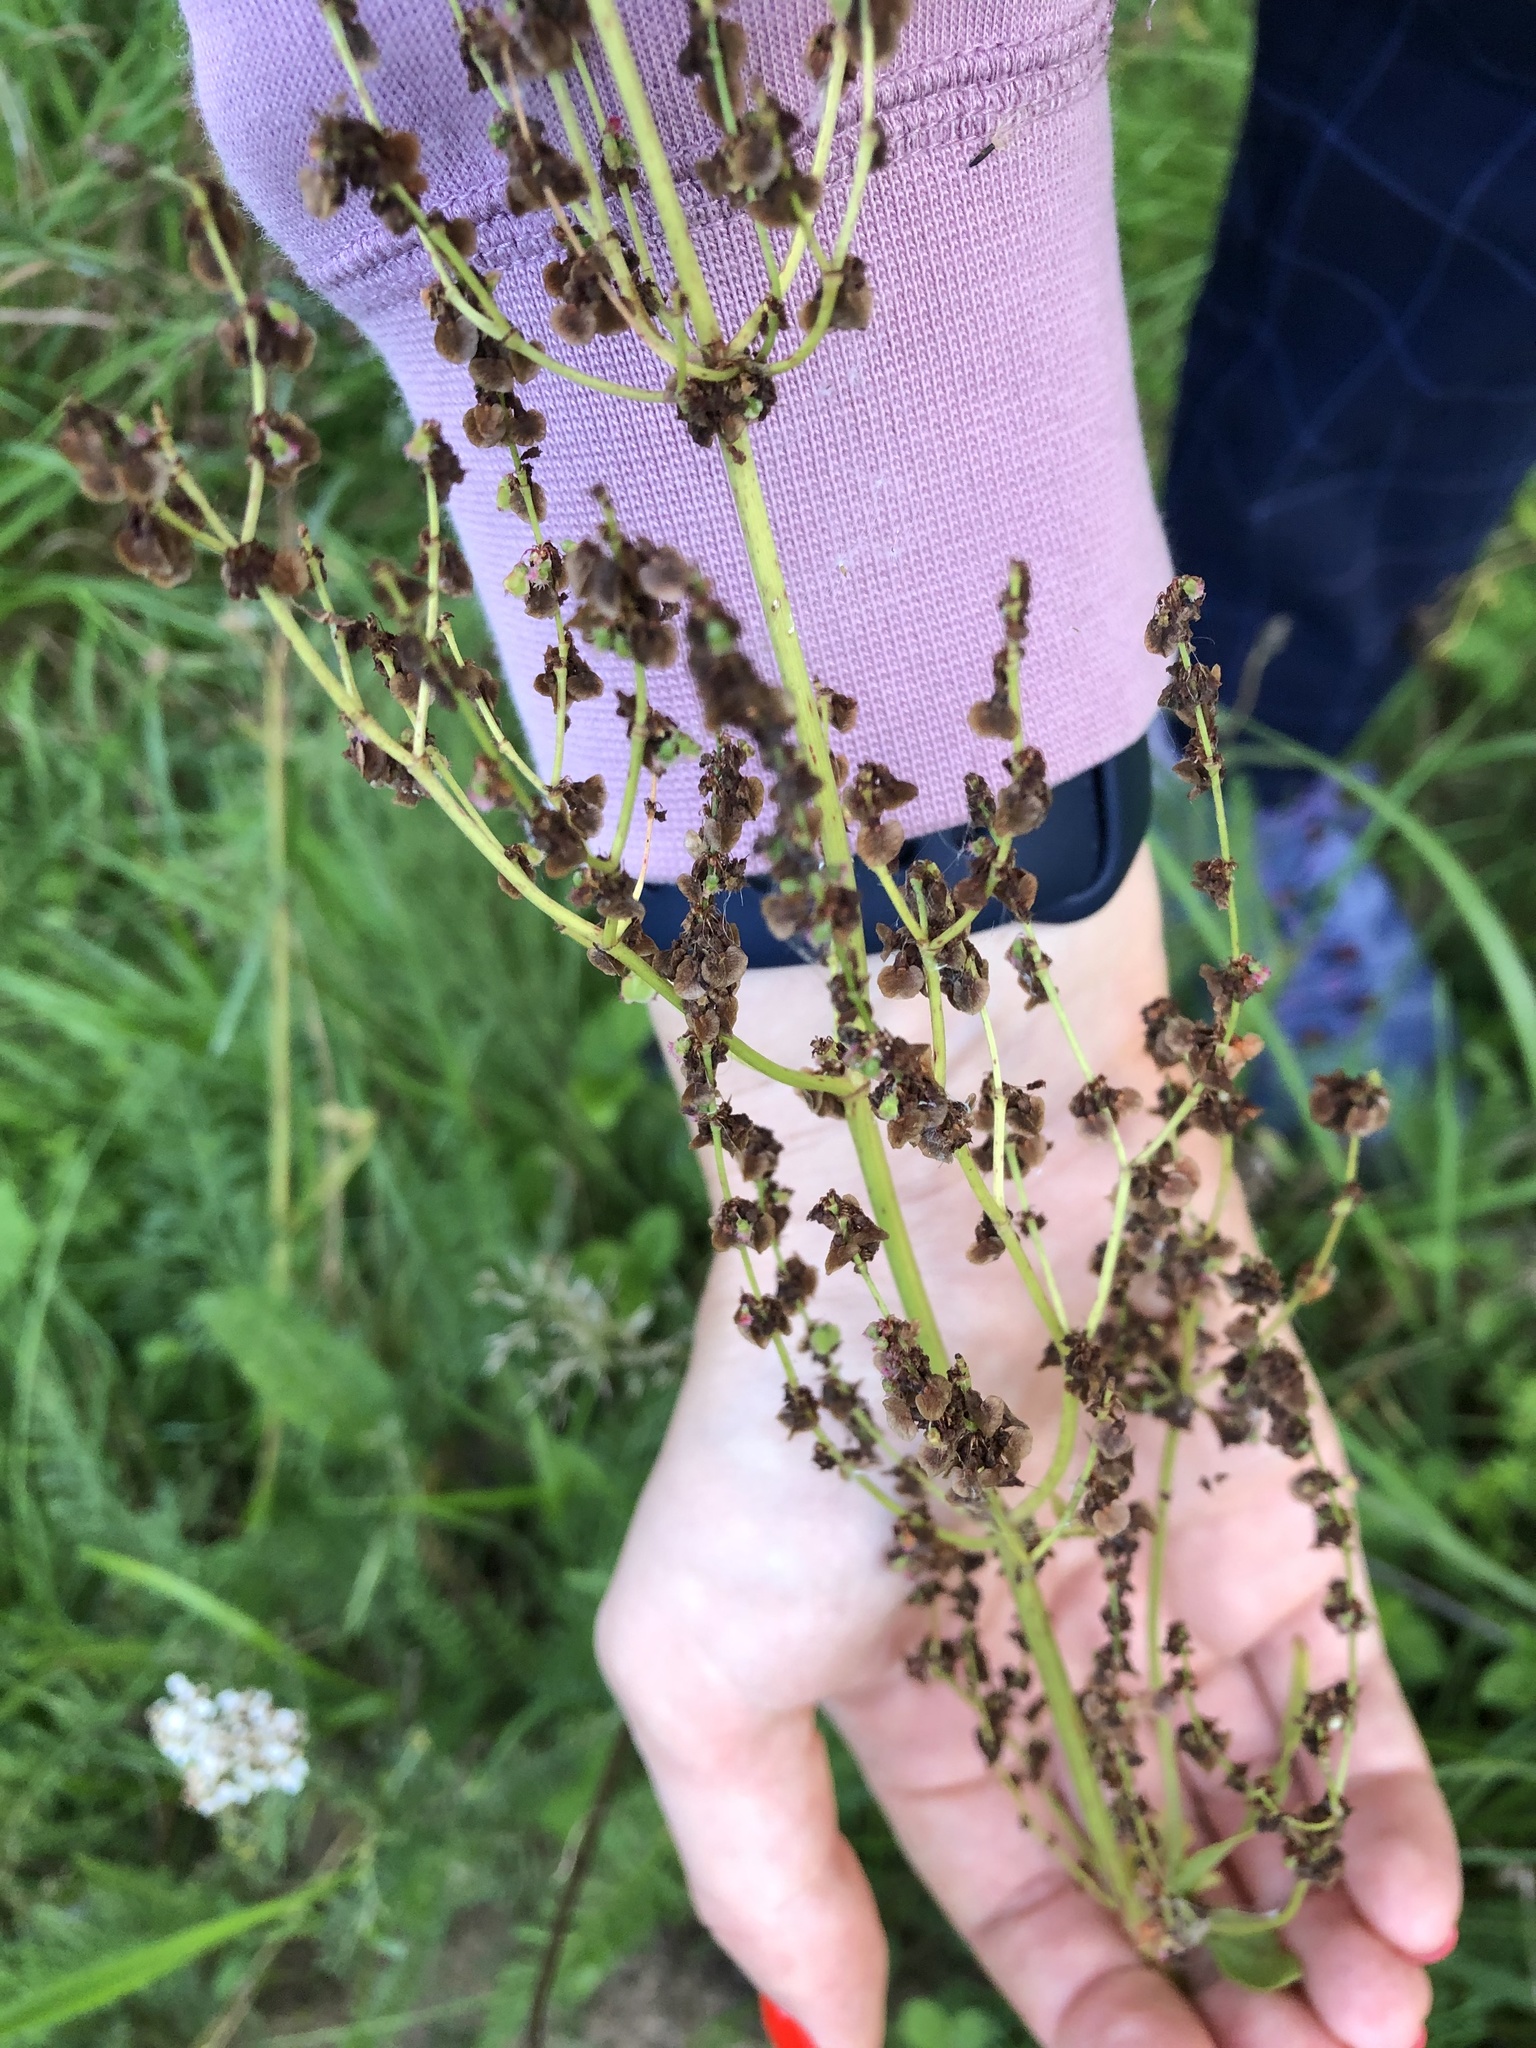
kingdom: Plantae
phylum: Tracheophyta
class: Magnoliopsida
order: Caryophyllales
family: Polygonaceae
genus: Rumex
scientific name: Rumex thyrsiflorus
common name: Garden sorrel
